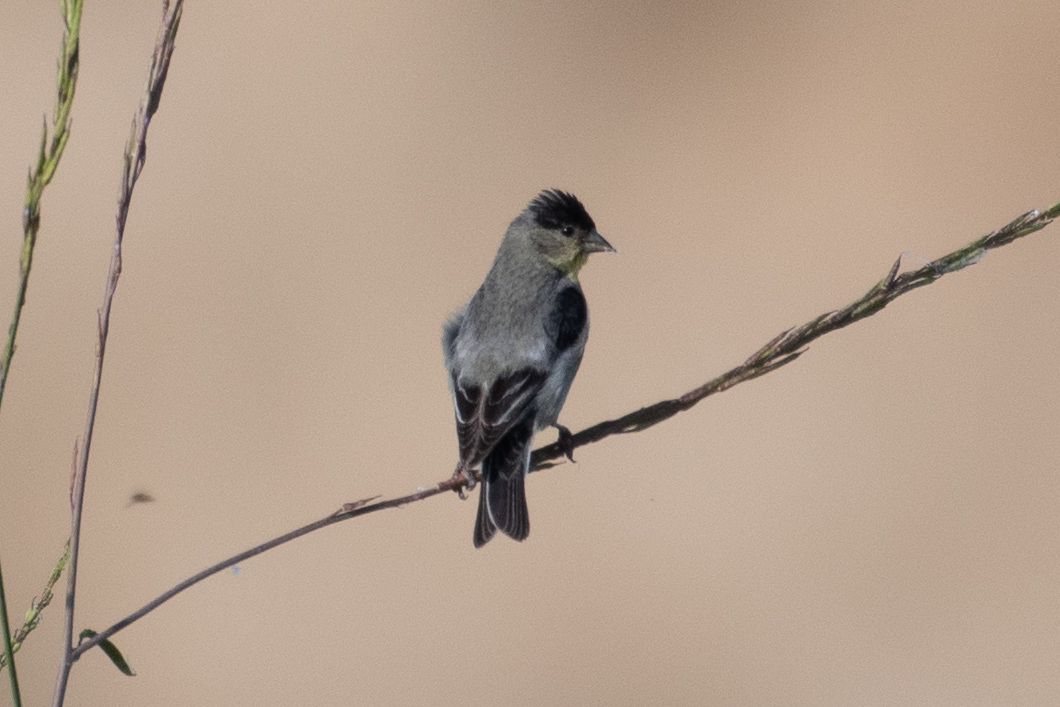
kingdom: Animalia
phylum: Chordata
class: Aves
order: Passeriformes
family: Fringillidae
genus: Spinus
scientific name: Spinus psaltria
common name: Lesser goldfinch
